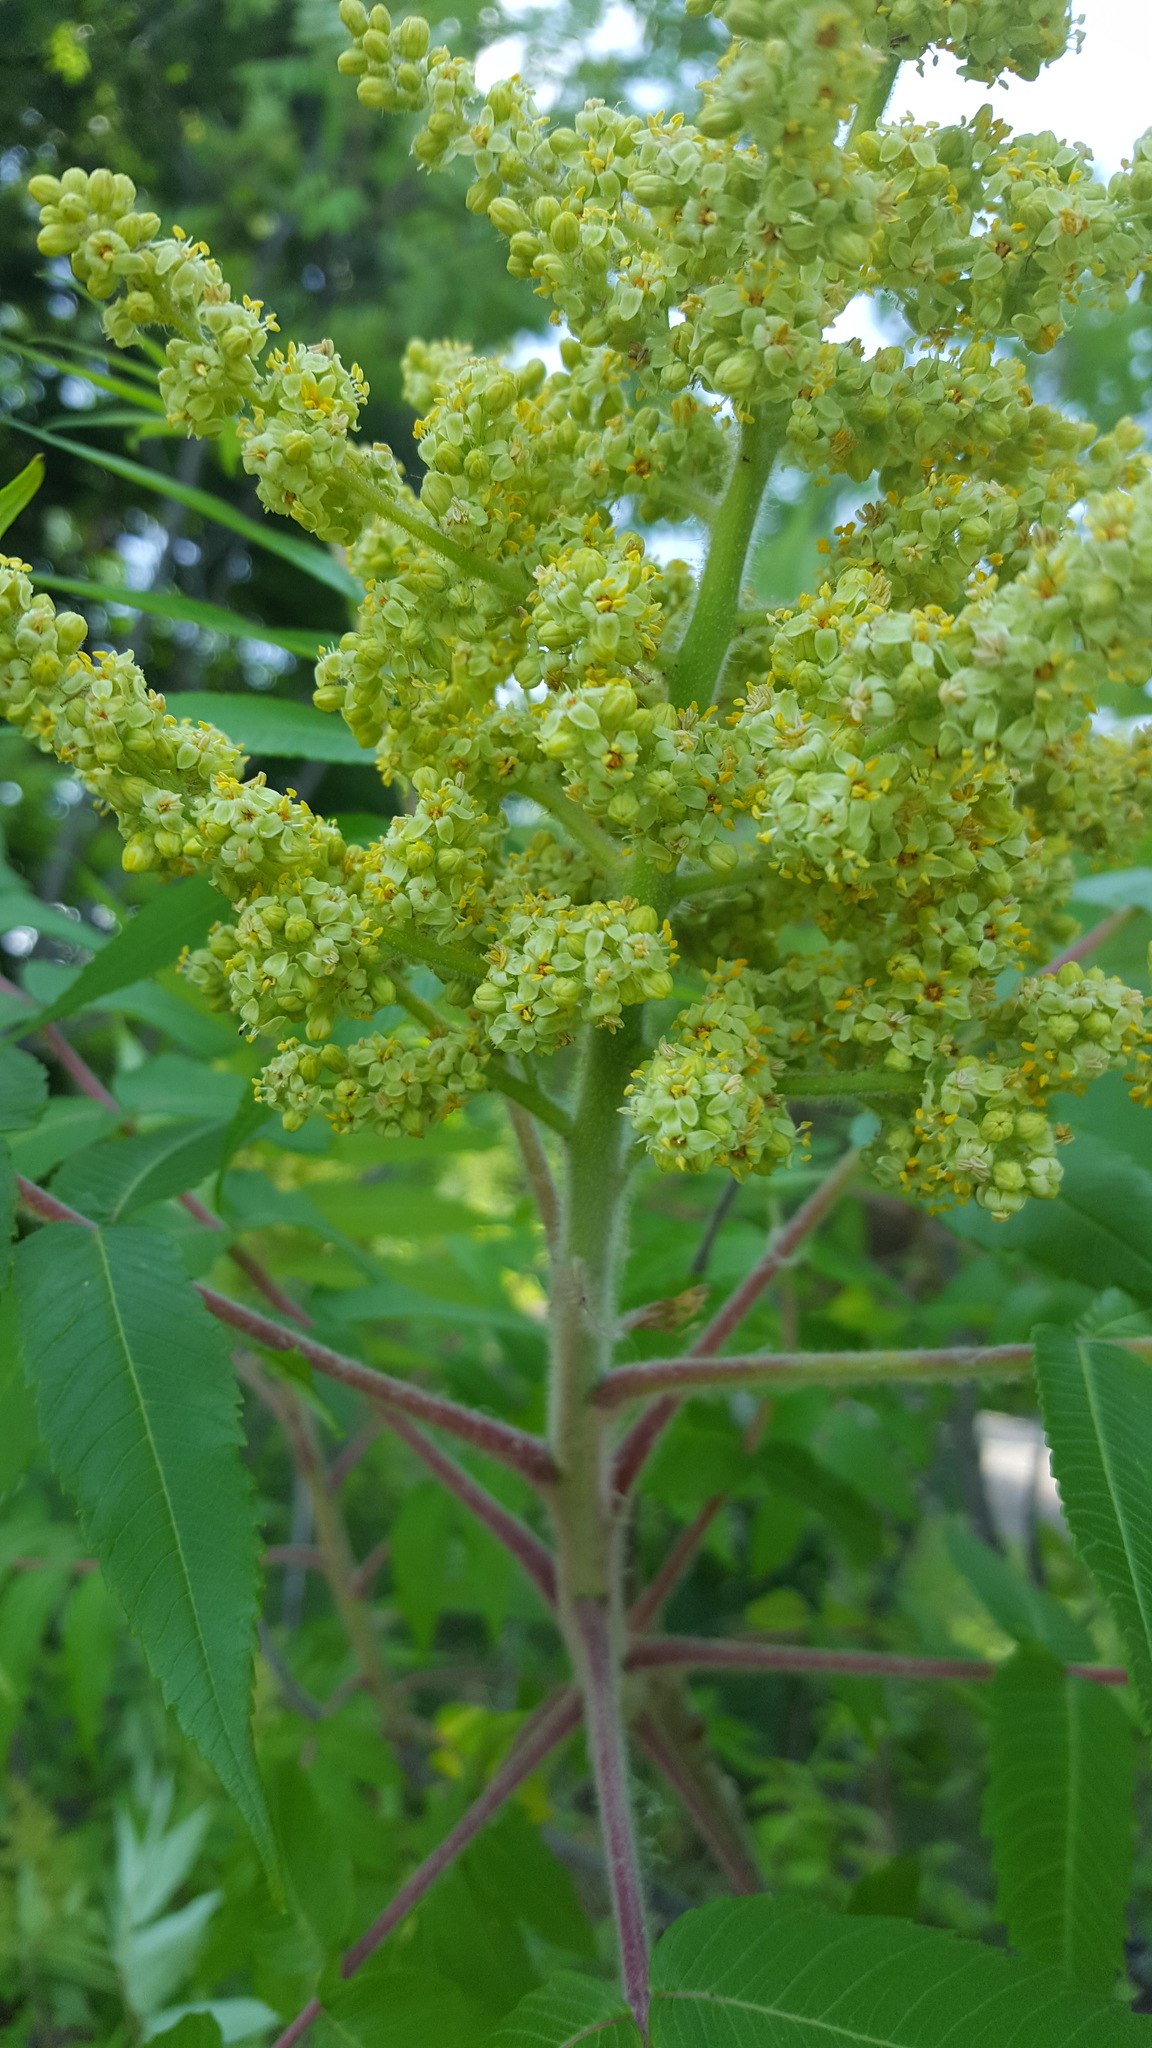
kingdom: Plantae
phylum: Tracheophyta
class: Magnoliopsida
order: Sapindales
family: Anacardiaceae
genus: Rhus
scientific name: Rhus typhina
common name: Staghorn sumac
